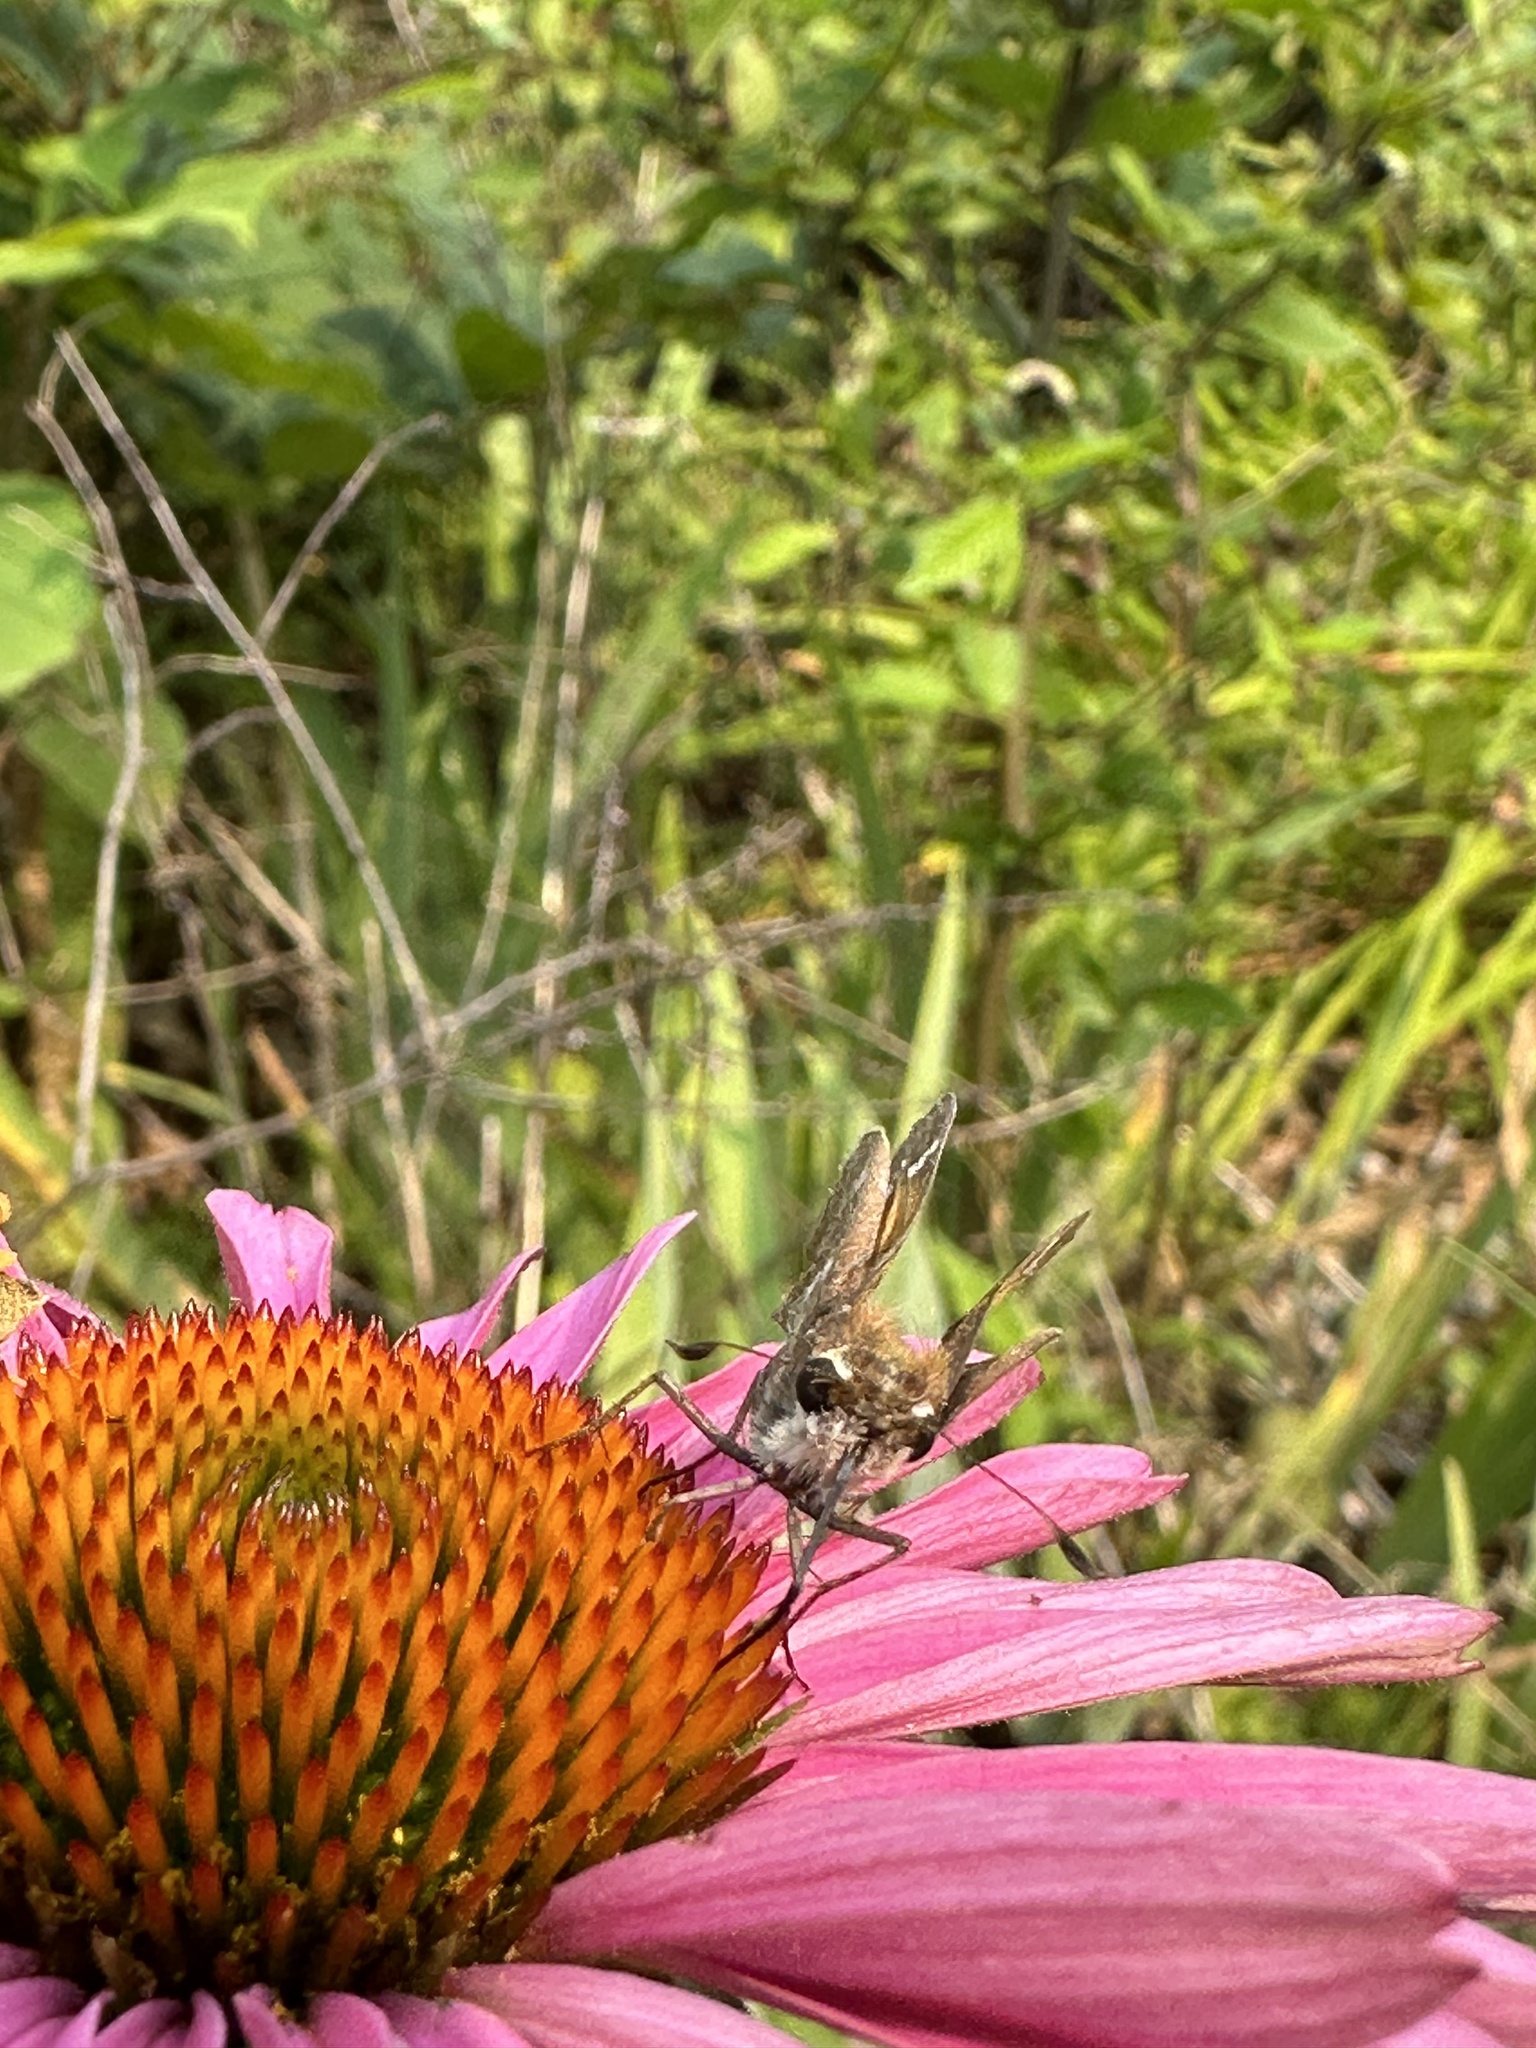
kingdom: Animalia
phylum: Arthropoda
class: Insecta
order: Lepidoptera
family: Hesperiidae
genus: Atalopedes
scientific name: Atalopedes
